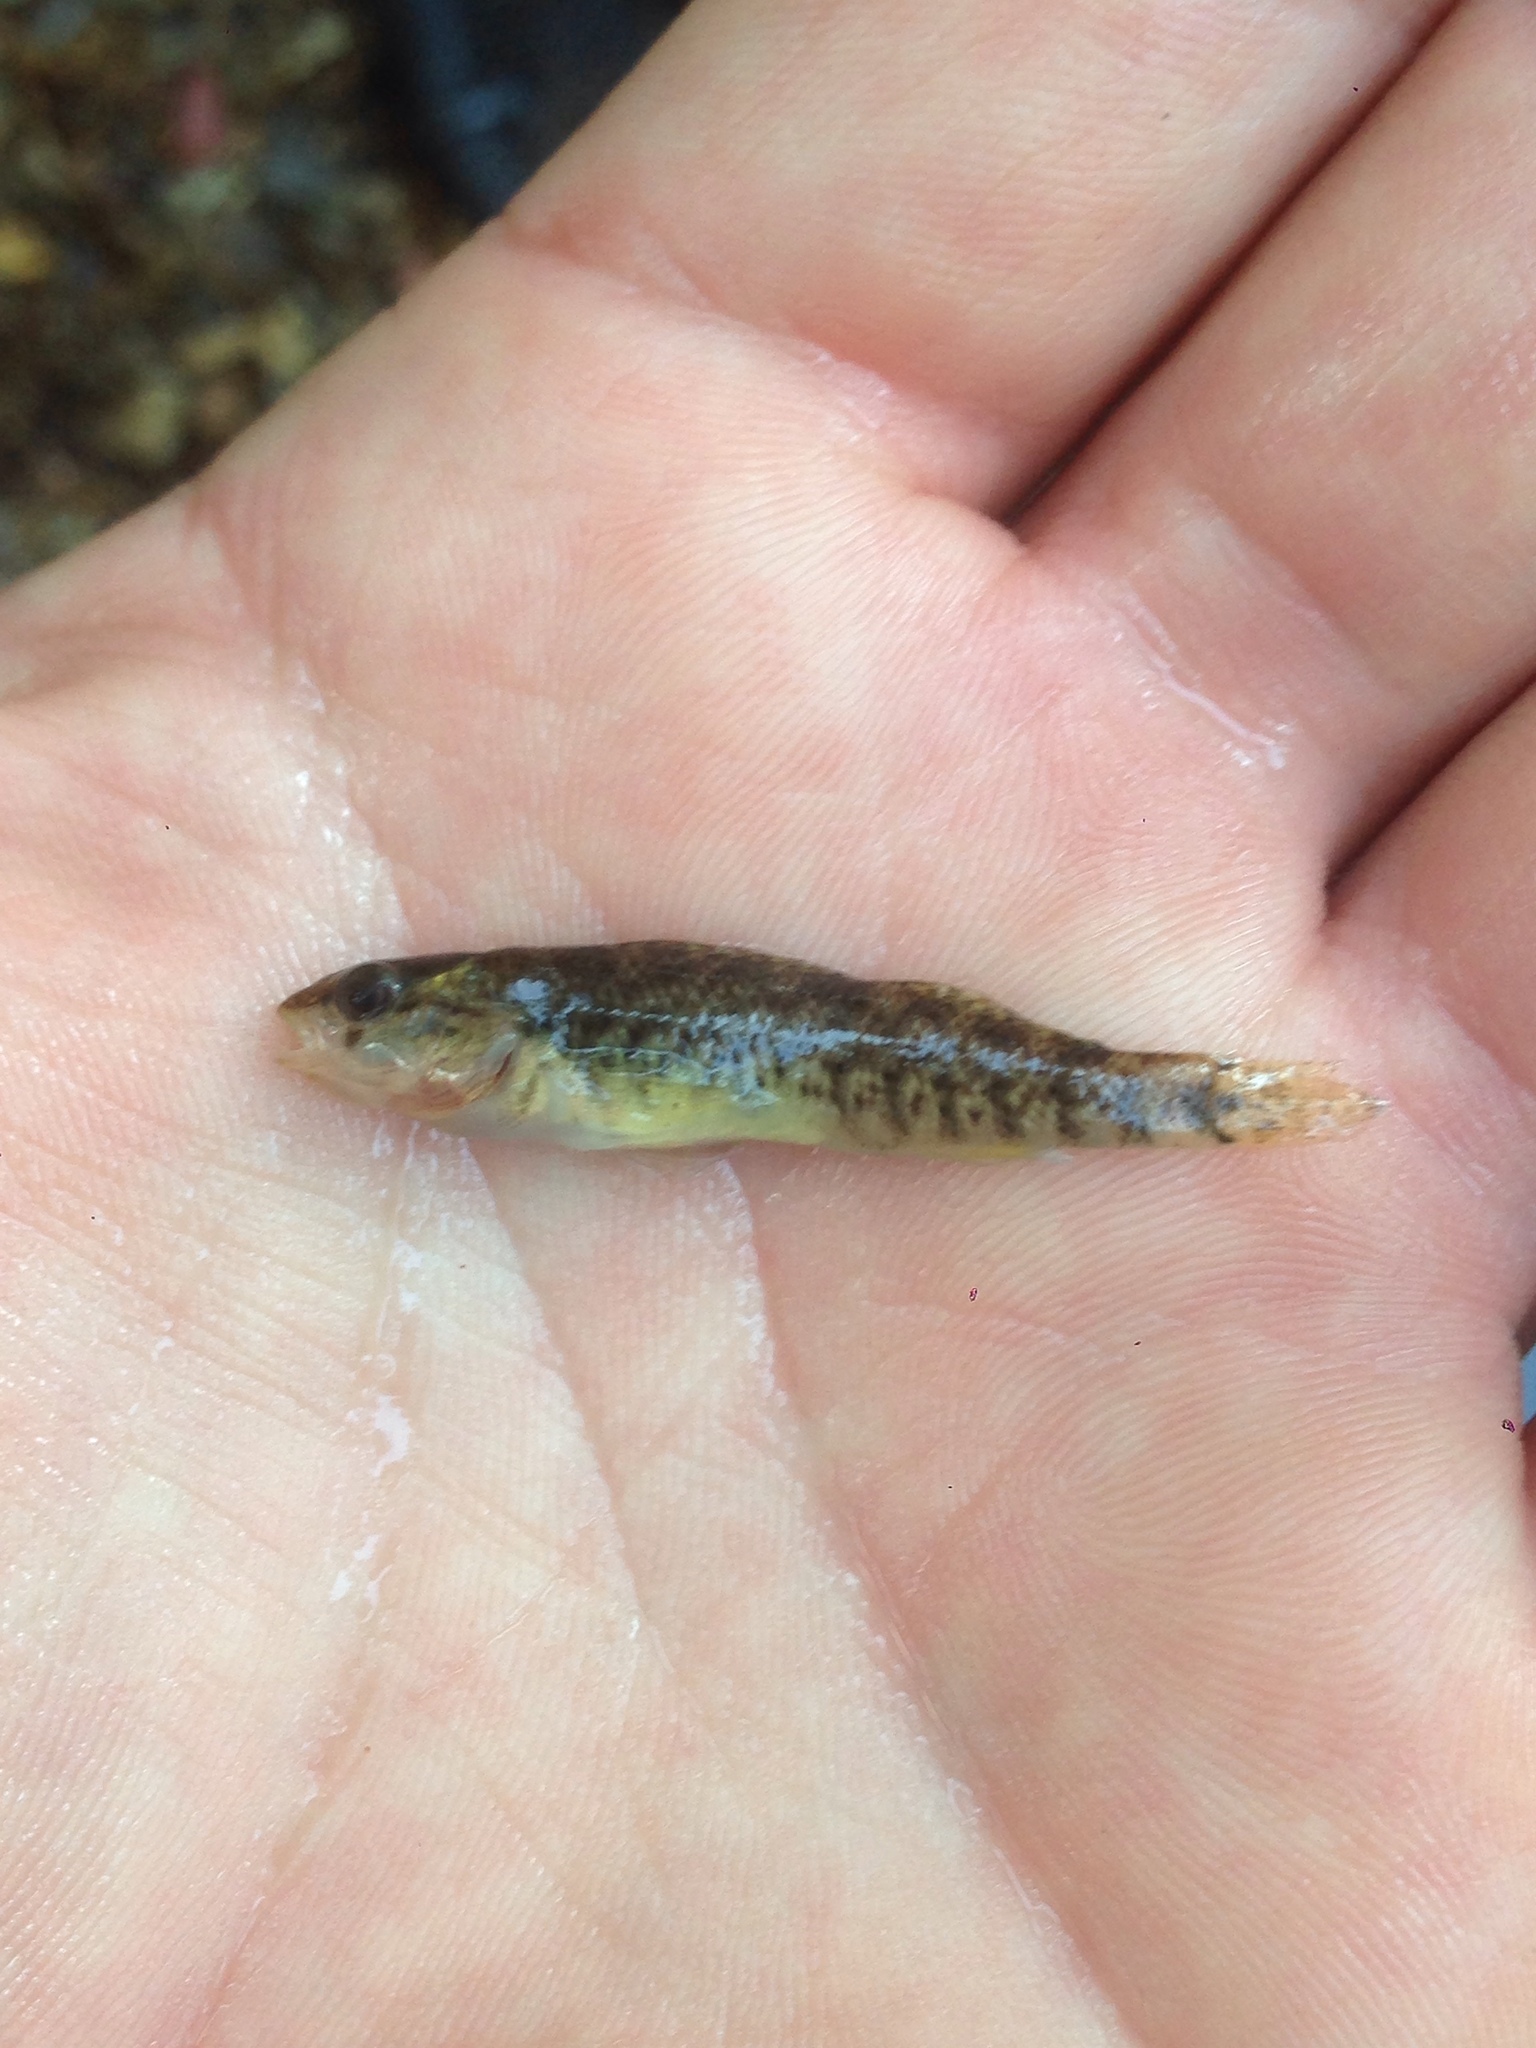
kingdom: Animalia
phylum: Chordata
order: Perciformes
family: Percidae
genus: Etheostoma
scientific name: Etheostoma caeruleum
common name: Rainbow darter
